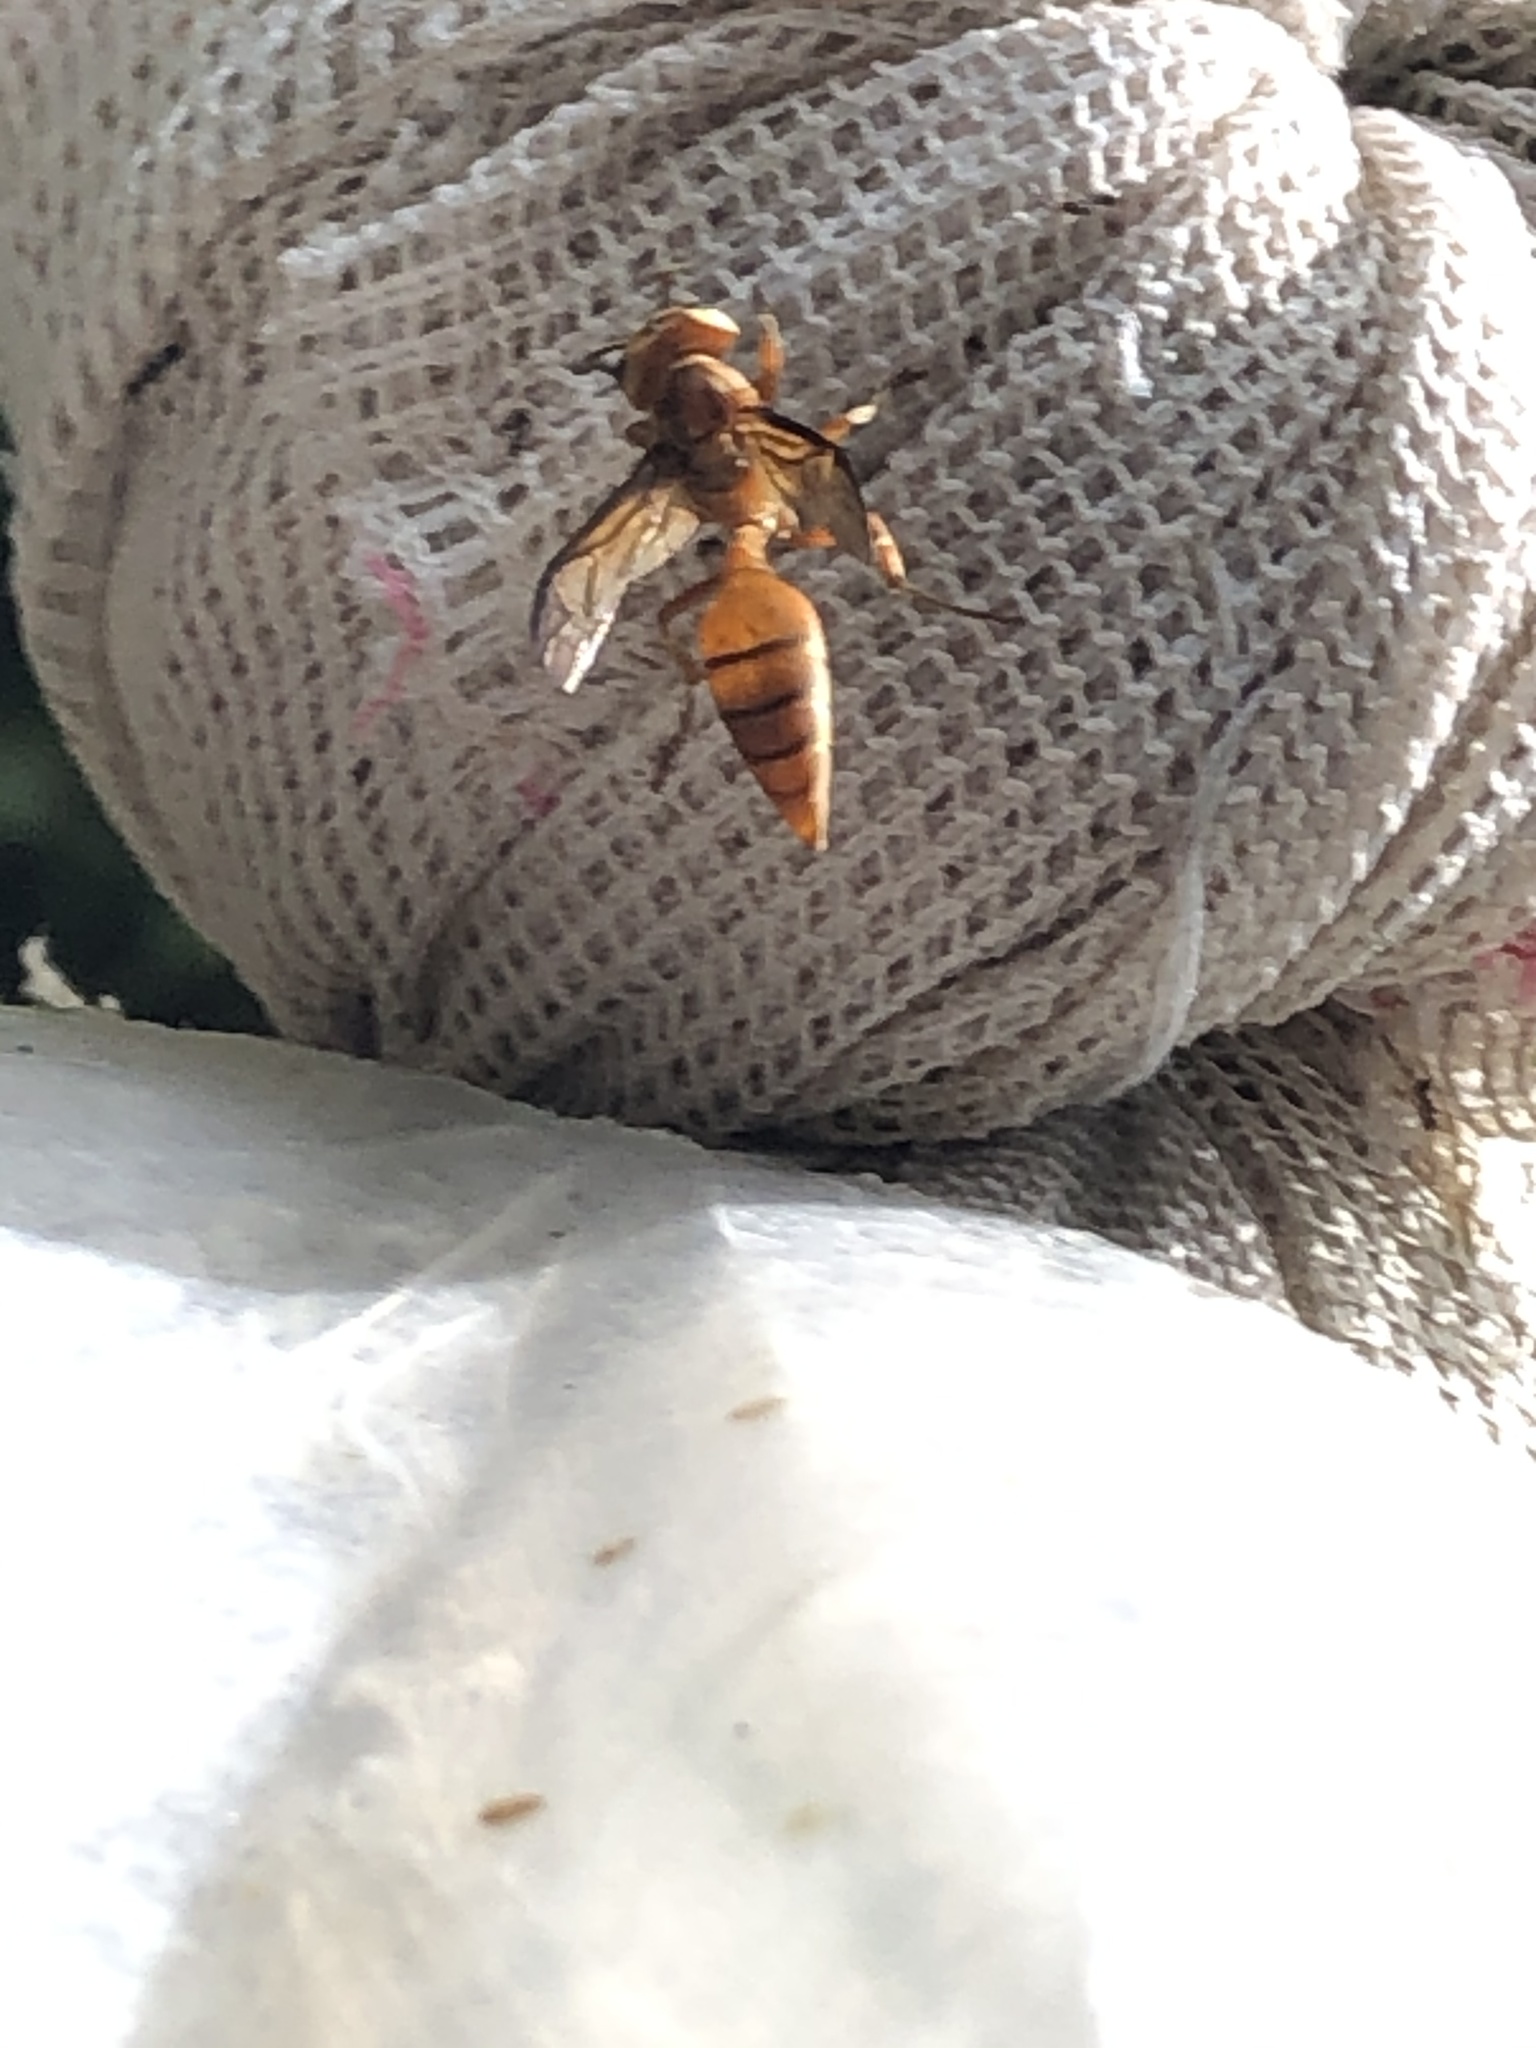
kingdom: Animalia
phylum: Arthropoda
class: Insecta
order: Hymenoptera
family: Vespidae
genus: Synoeca
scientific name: Synoeca virginea
